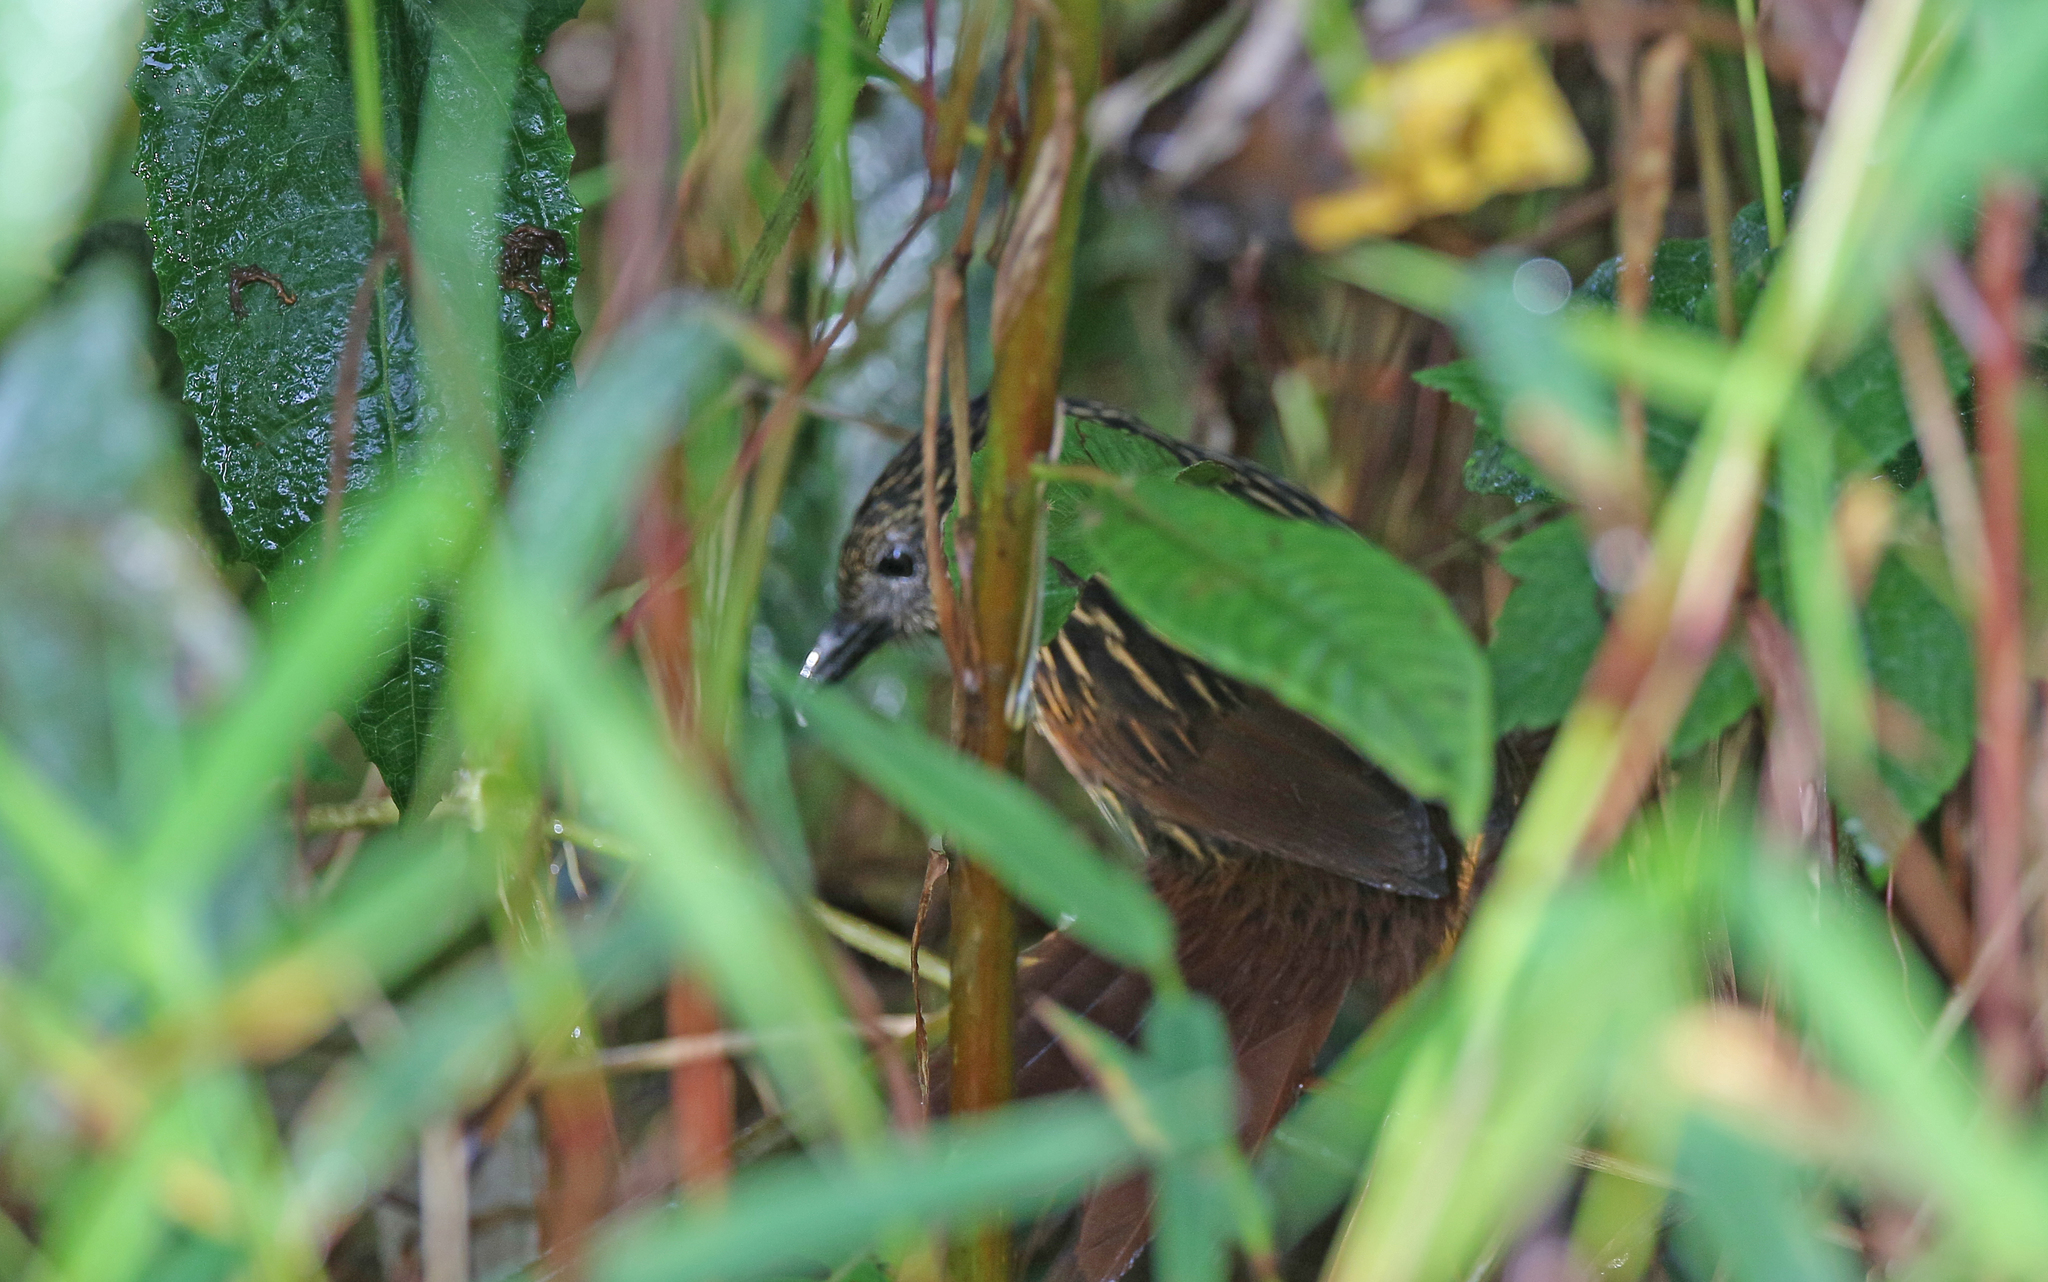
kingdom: Animalia
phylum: Chordata
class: Aves
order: Passeriformes
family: Furnariidae
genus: Thripadectes
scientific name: Thripadectes flammulatus
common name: Flammulated treehunter
